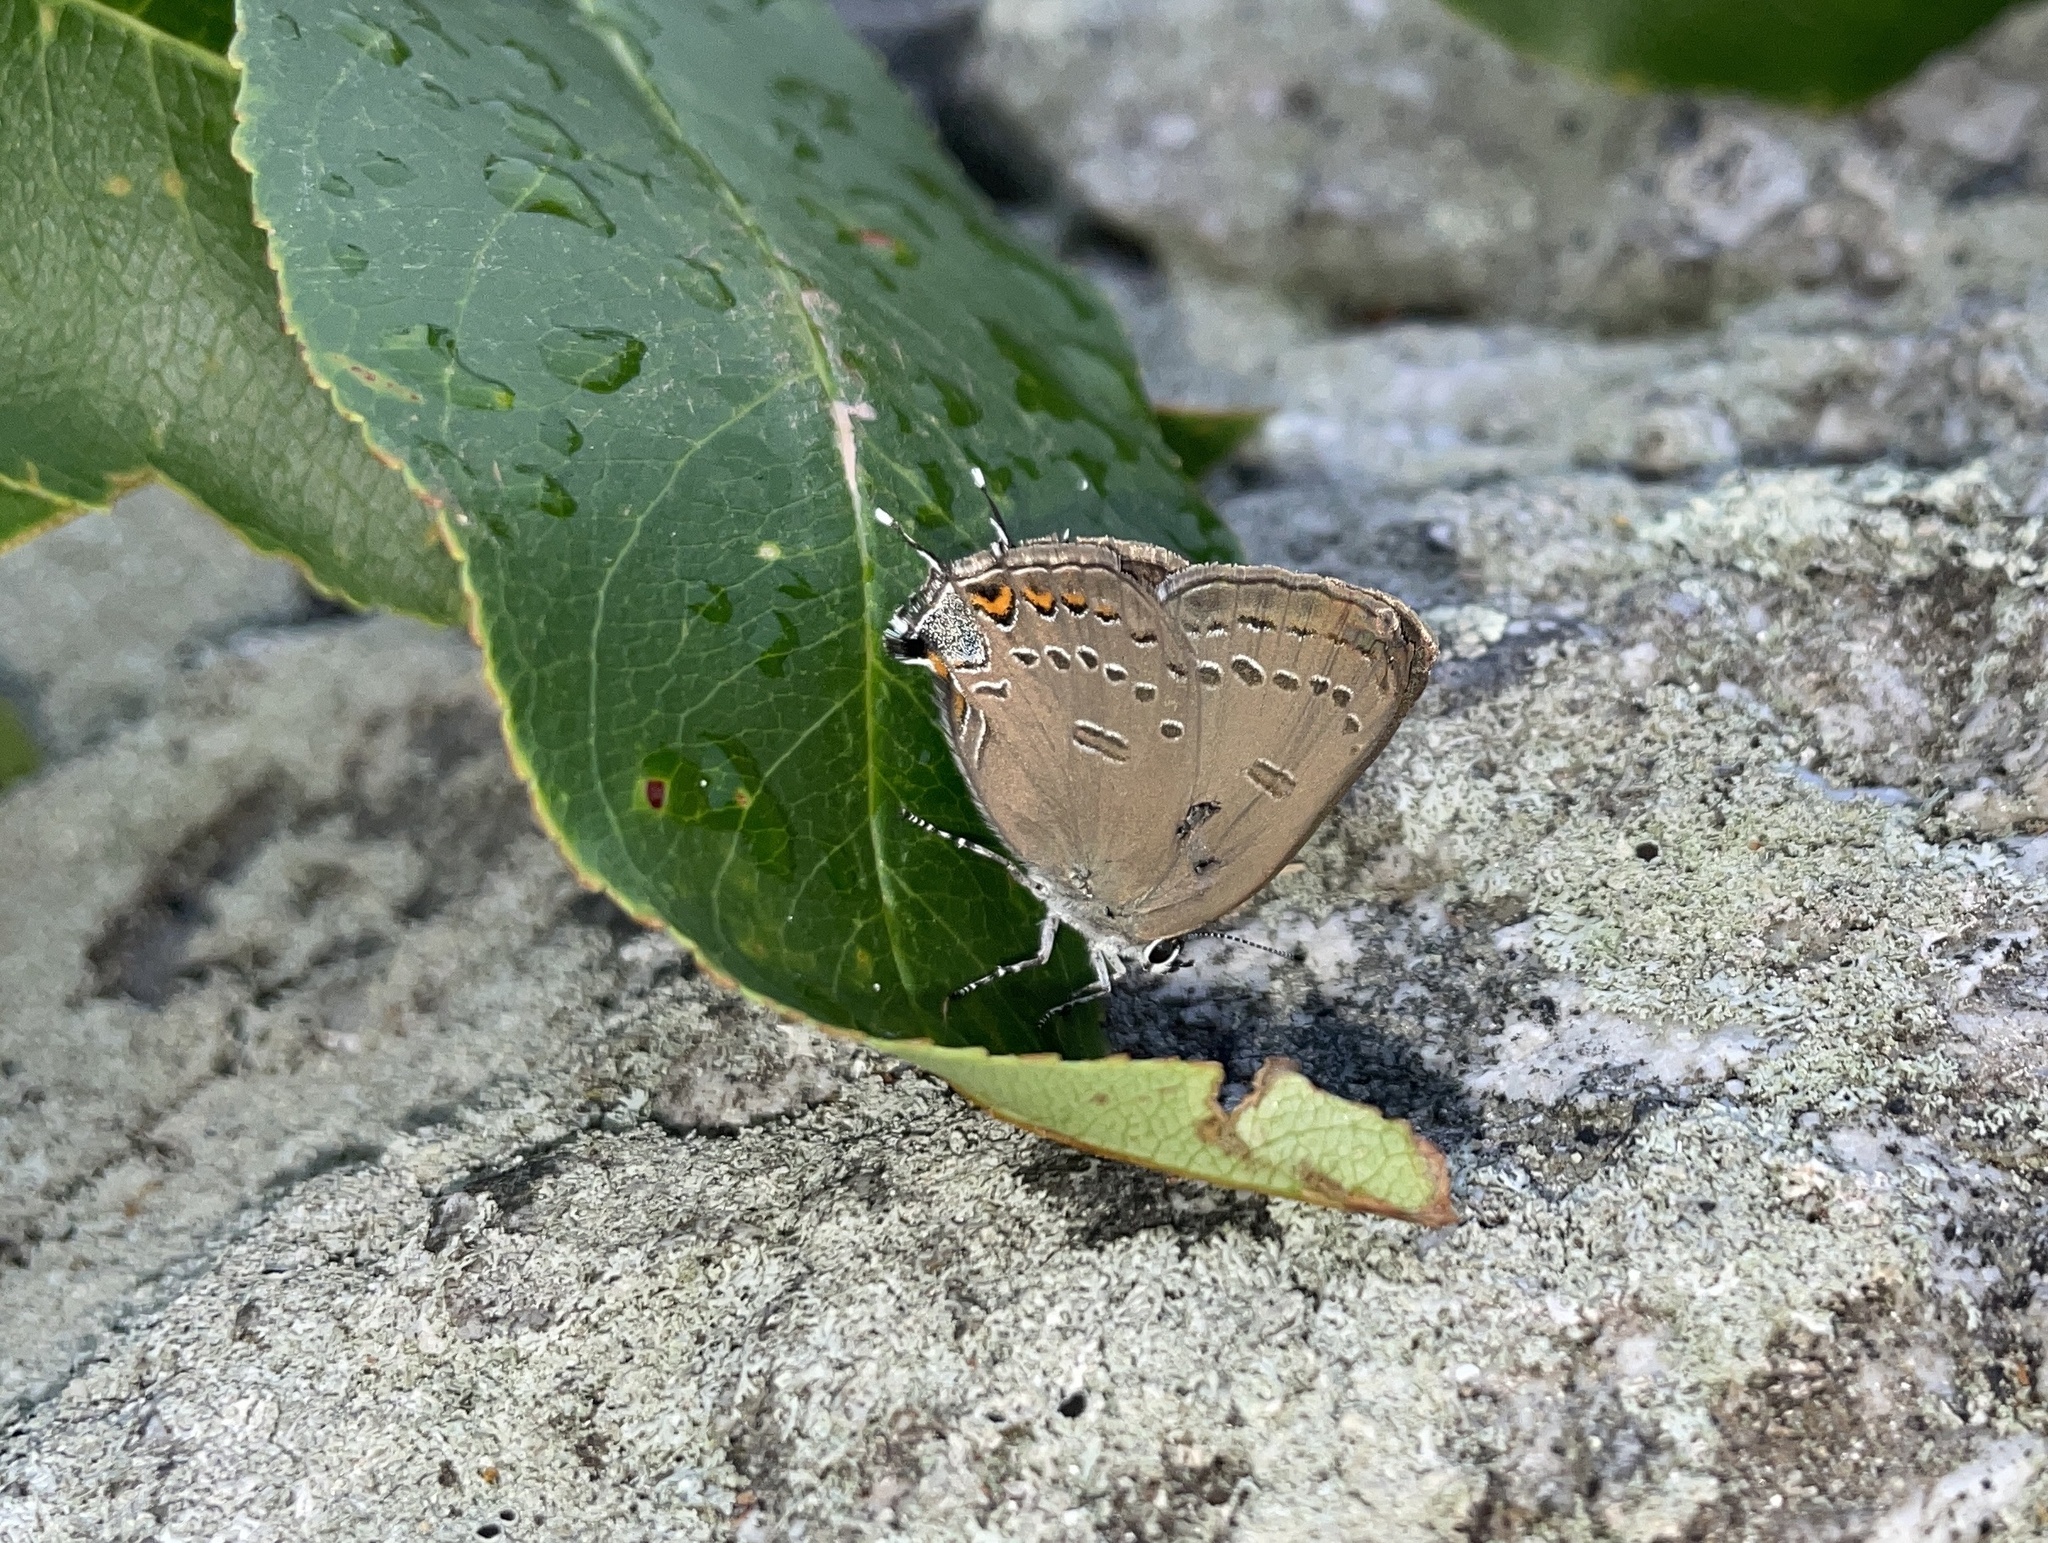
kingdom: Animalia
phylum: Arthropoda
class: Insecta
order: Lepidoptera
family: Lycaenidae
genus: Satyrium
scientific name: Satyrium edwardsii
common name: Edwards' hairstreak
